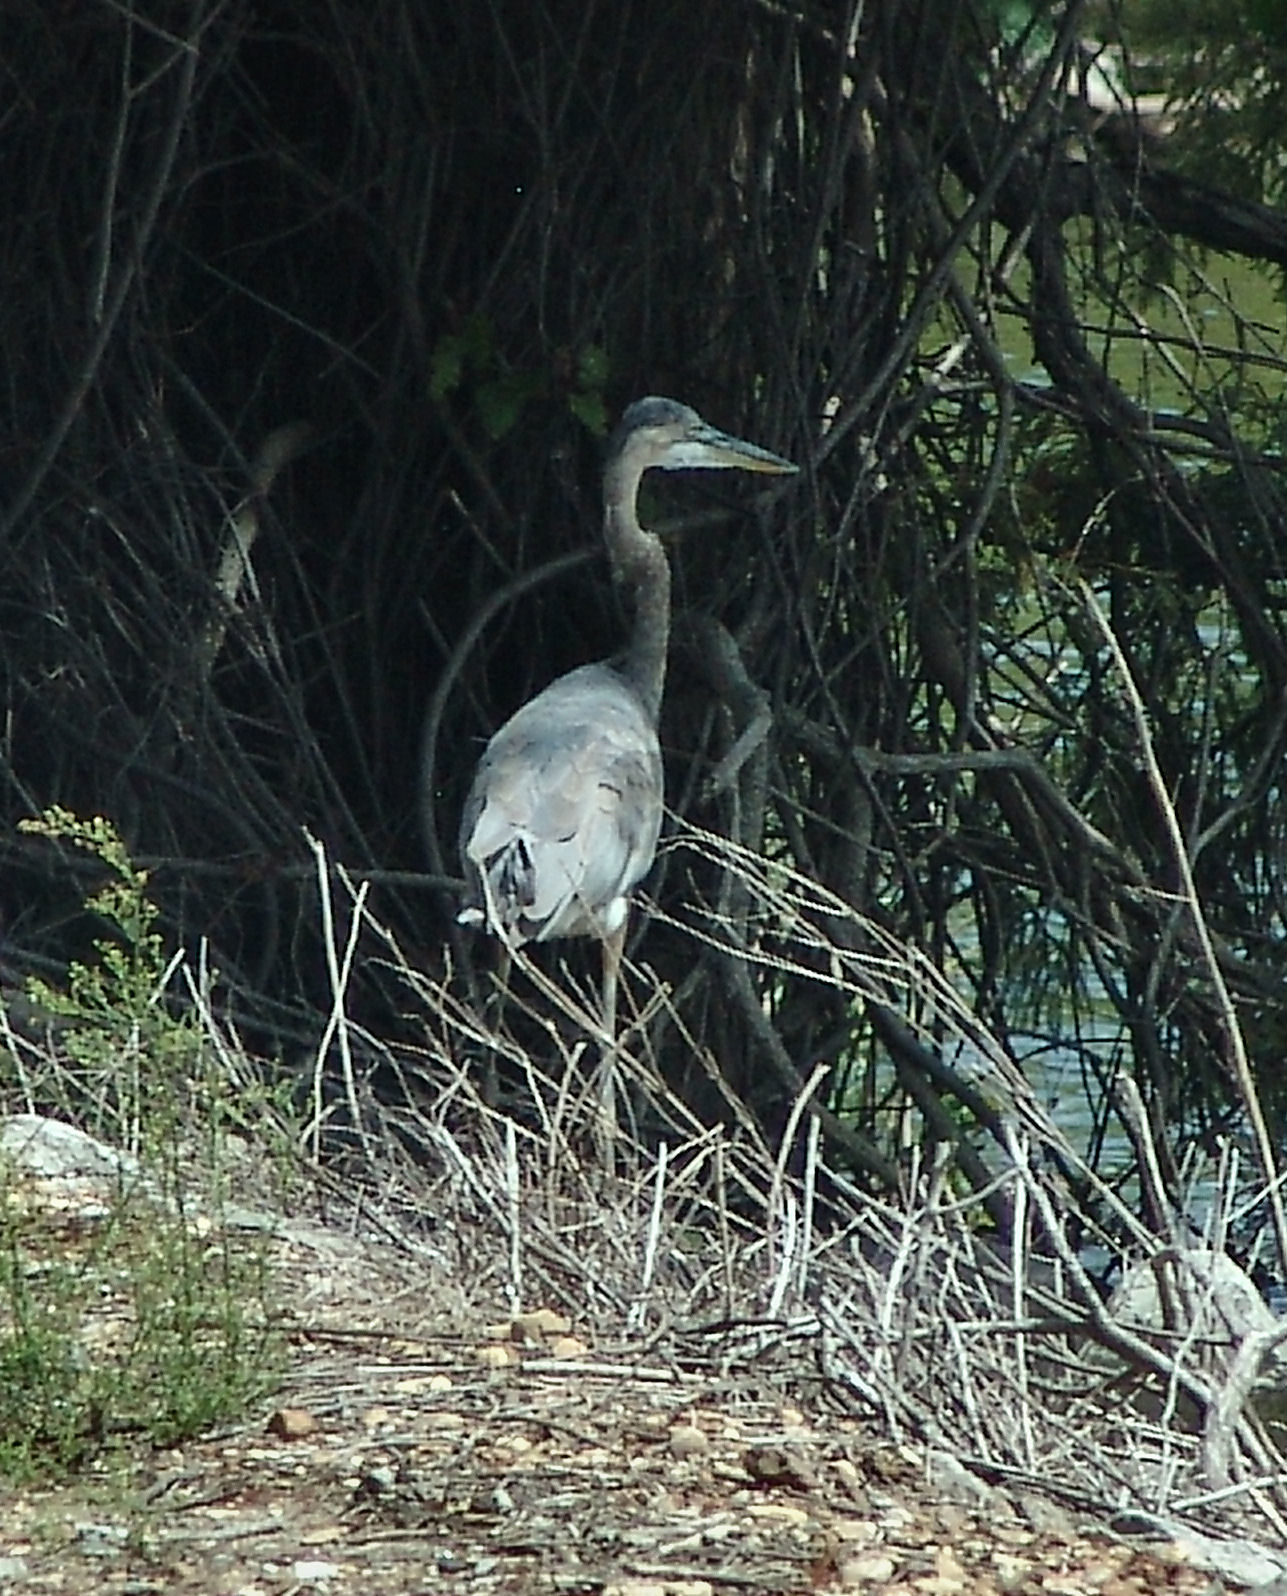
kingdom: Animalia
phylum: Chordata
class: Aves
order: Pelecaniformes
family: Ardeidae
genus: Ardea
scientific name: Ardea herodias
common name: Great blue heron
